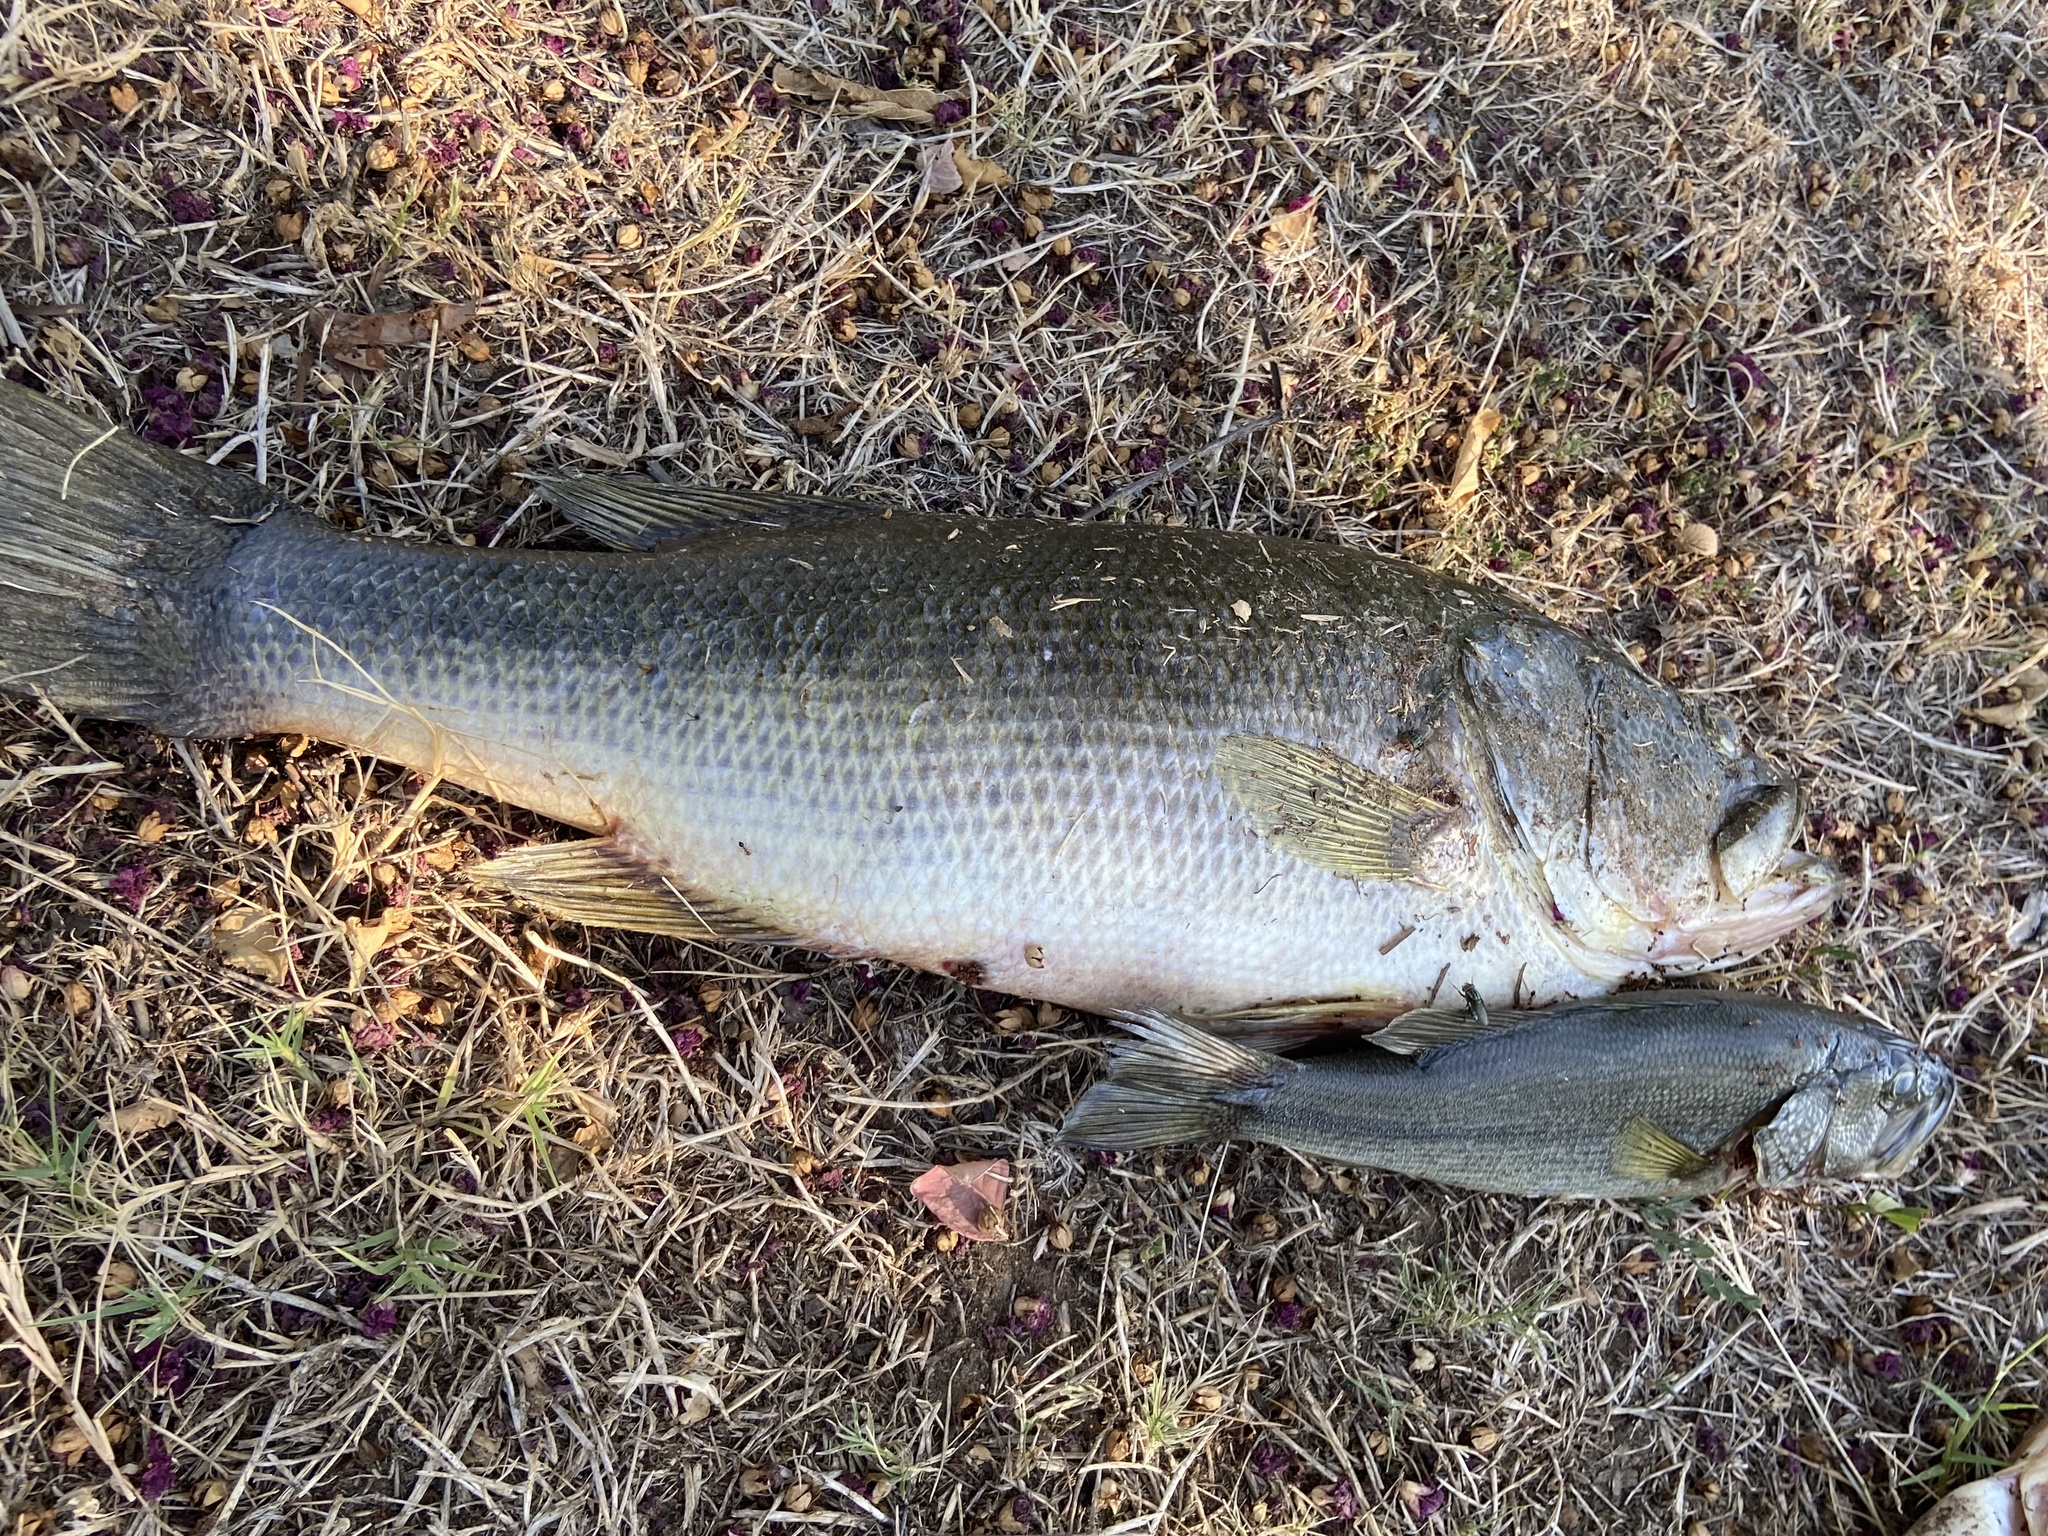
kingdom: Animalia
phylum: Chordata
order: Perciformes
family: Centrarchidae
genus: Micropterus
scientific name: Micropterus
